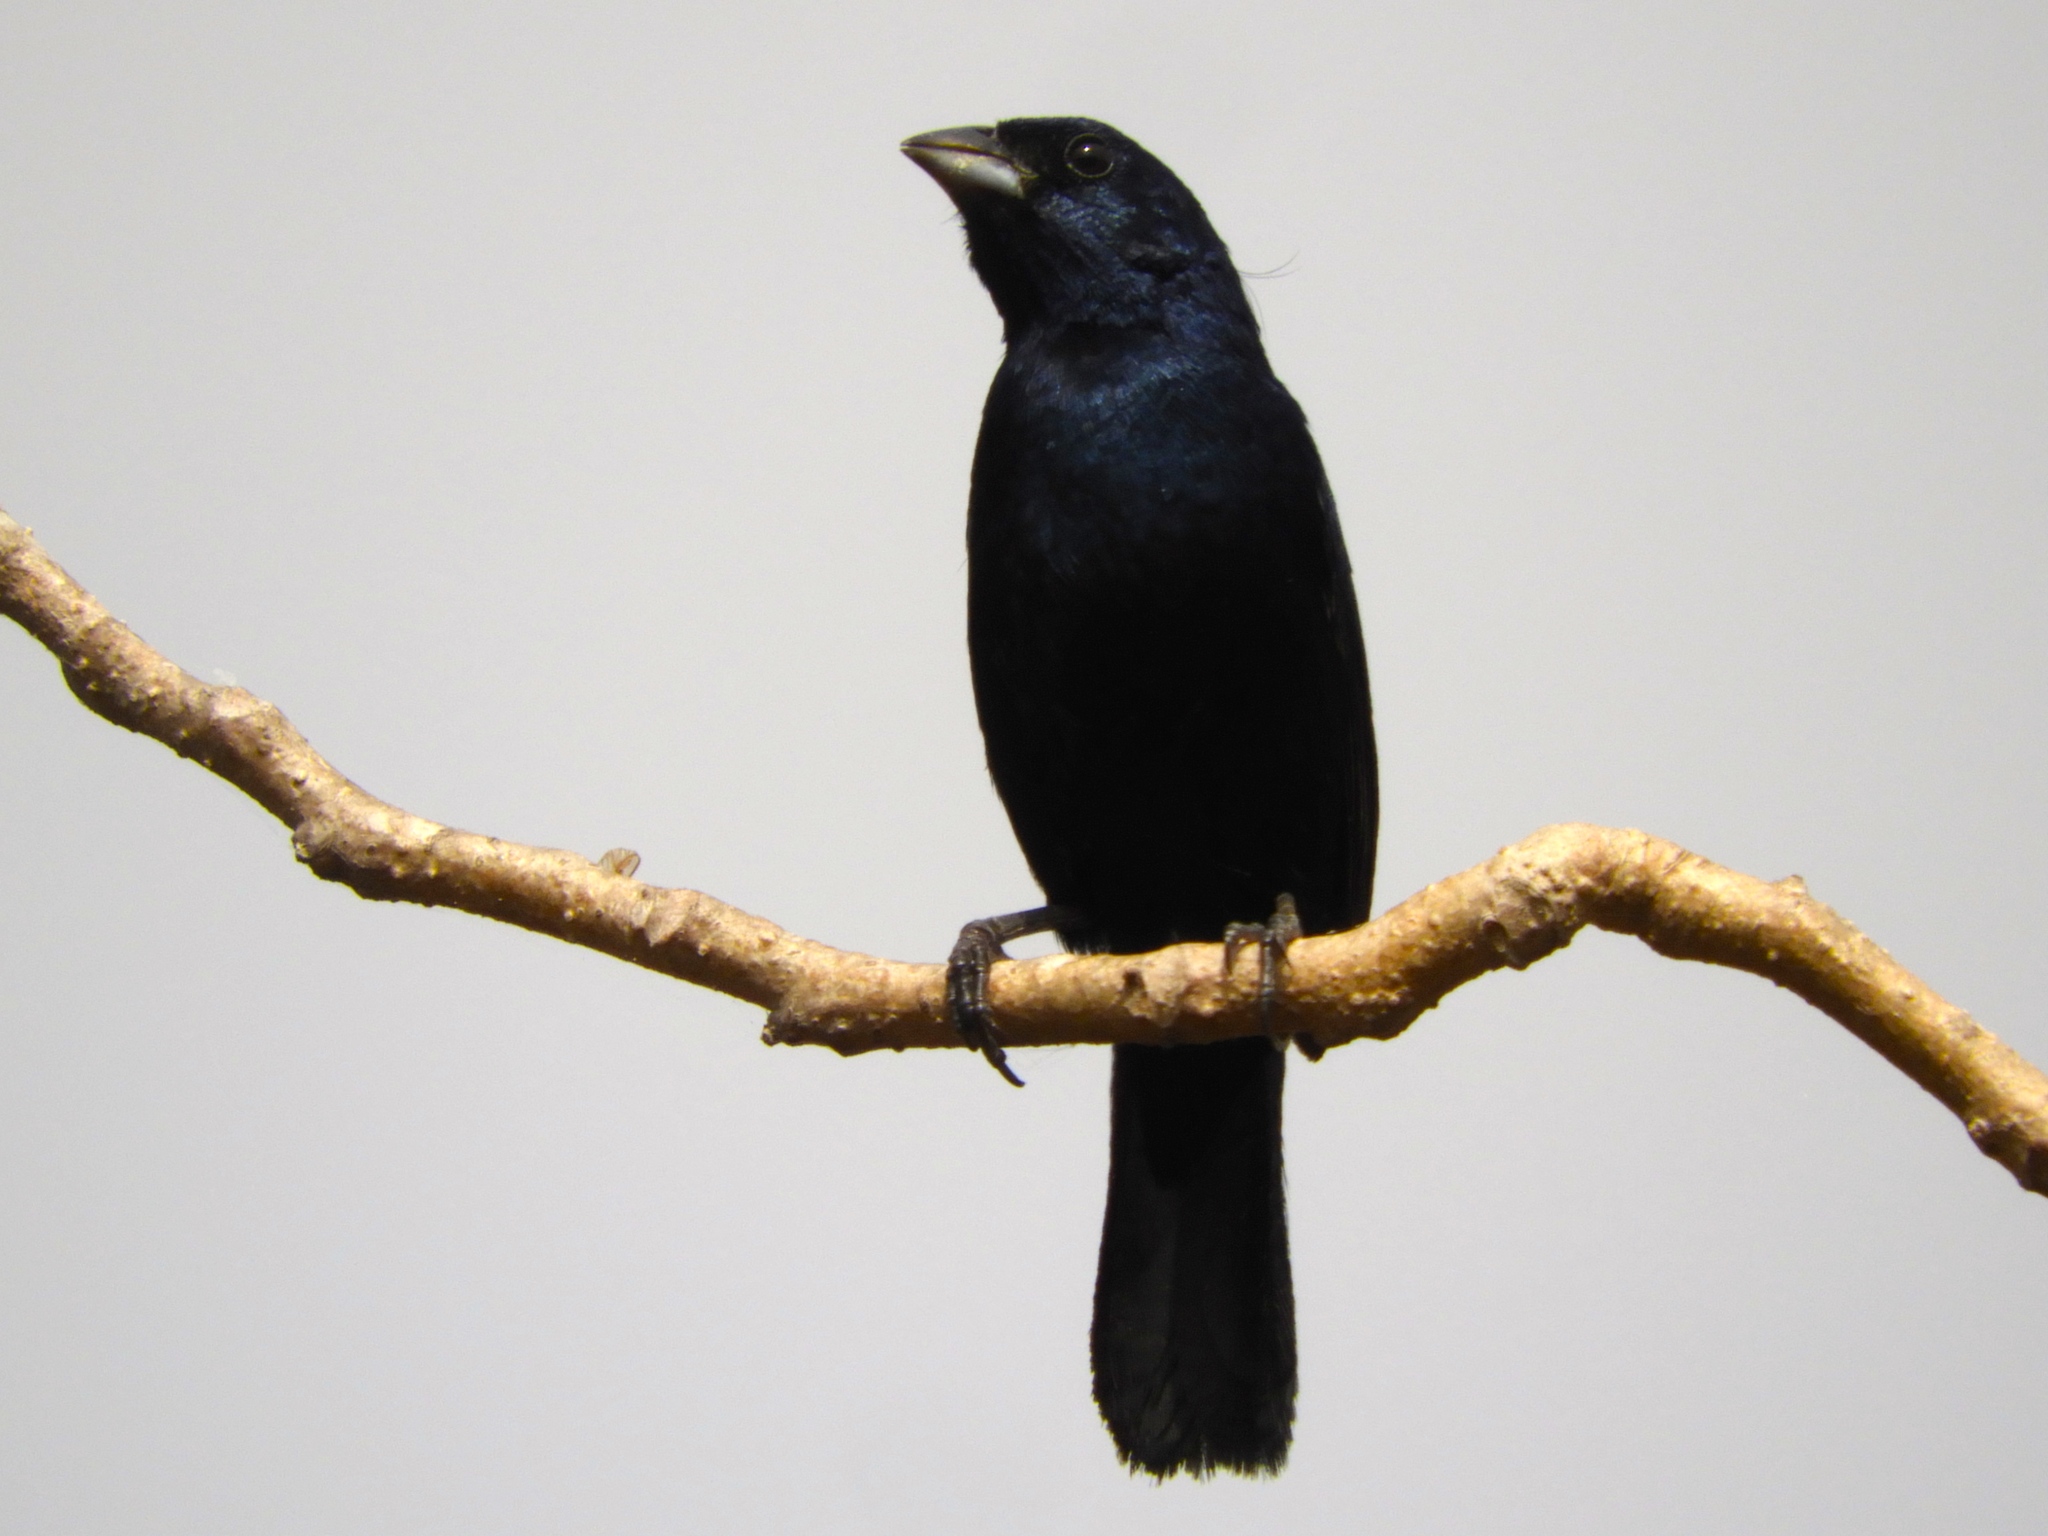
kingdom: Animalia
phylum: Chordata
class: Aves
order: Passeriformes
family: Thraupidae
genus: Volatinia
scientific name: Volatinia jacarina
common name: Blue-black grassquit
